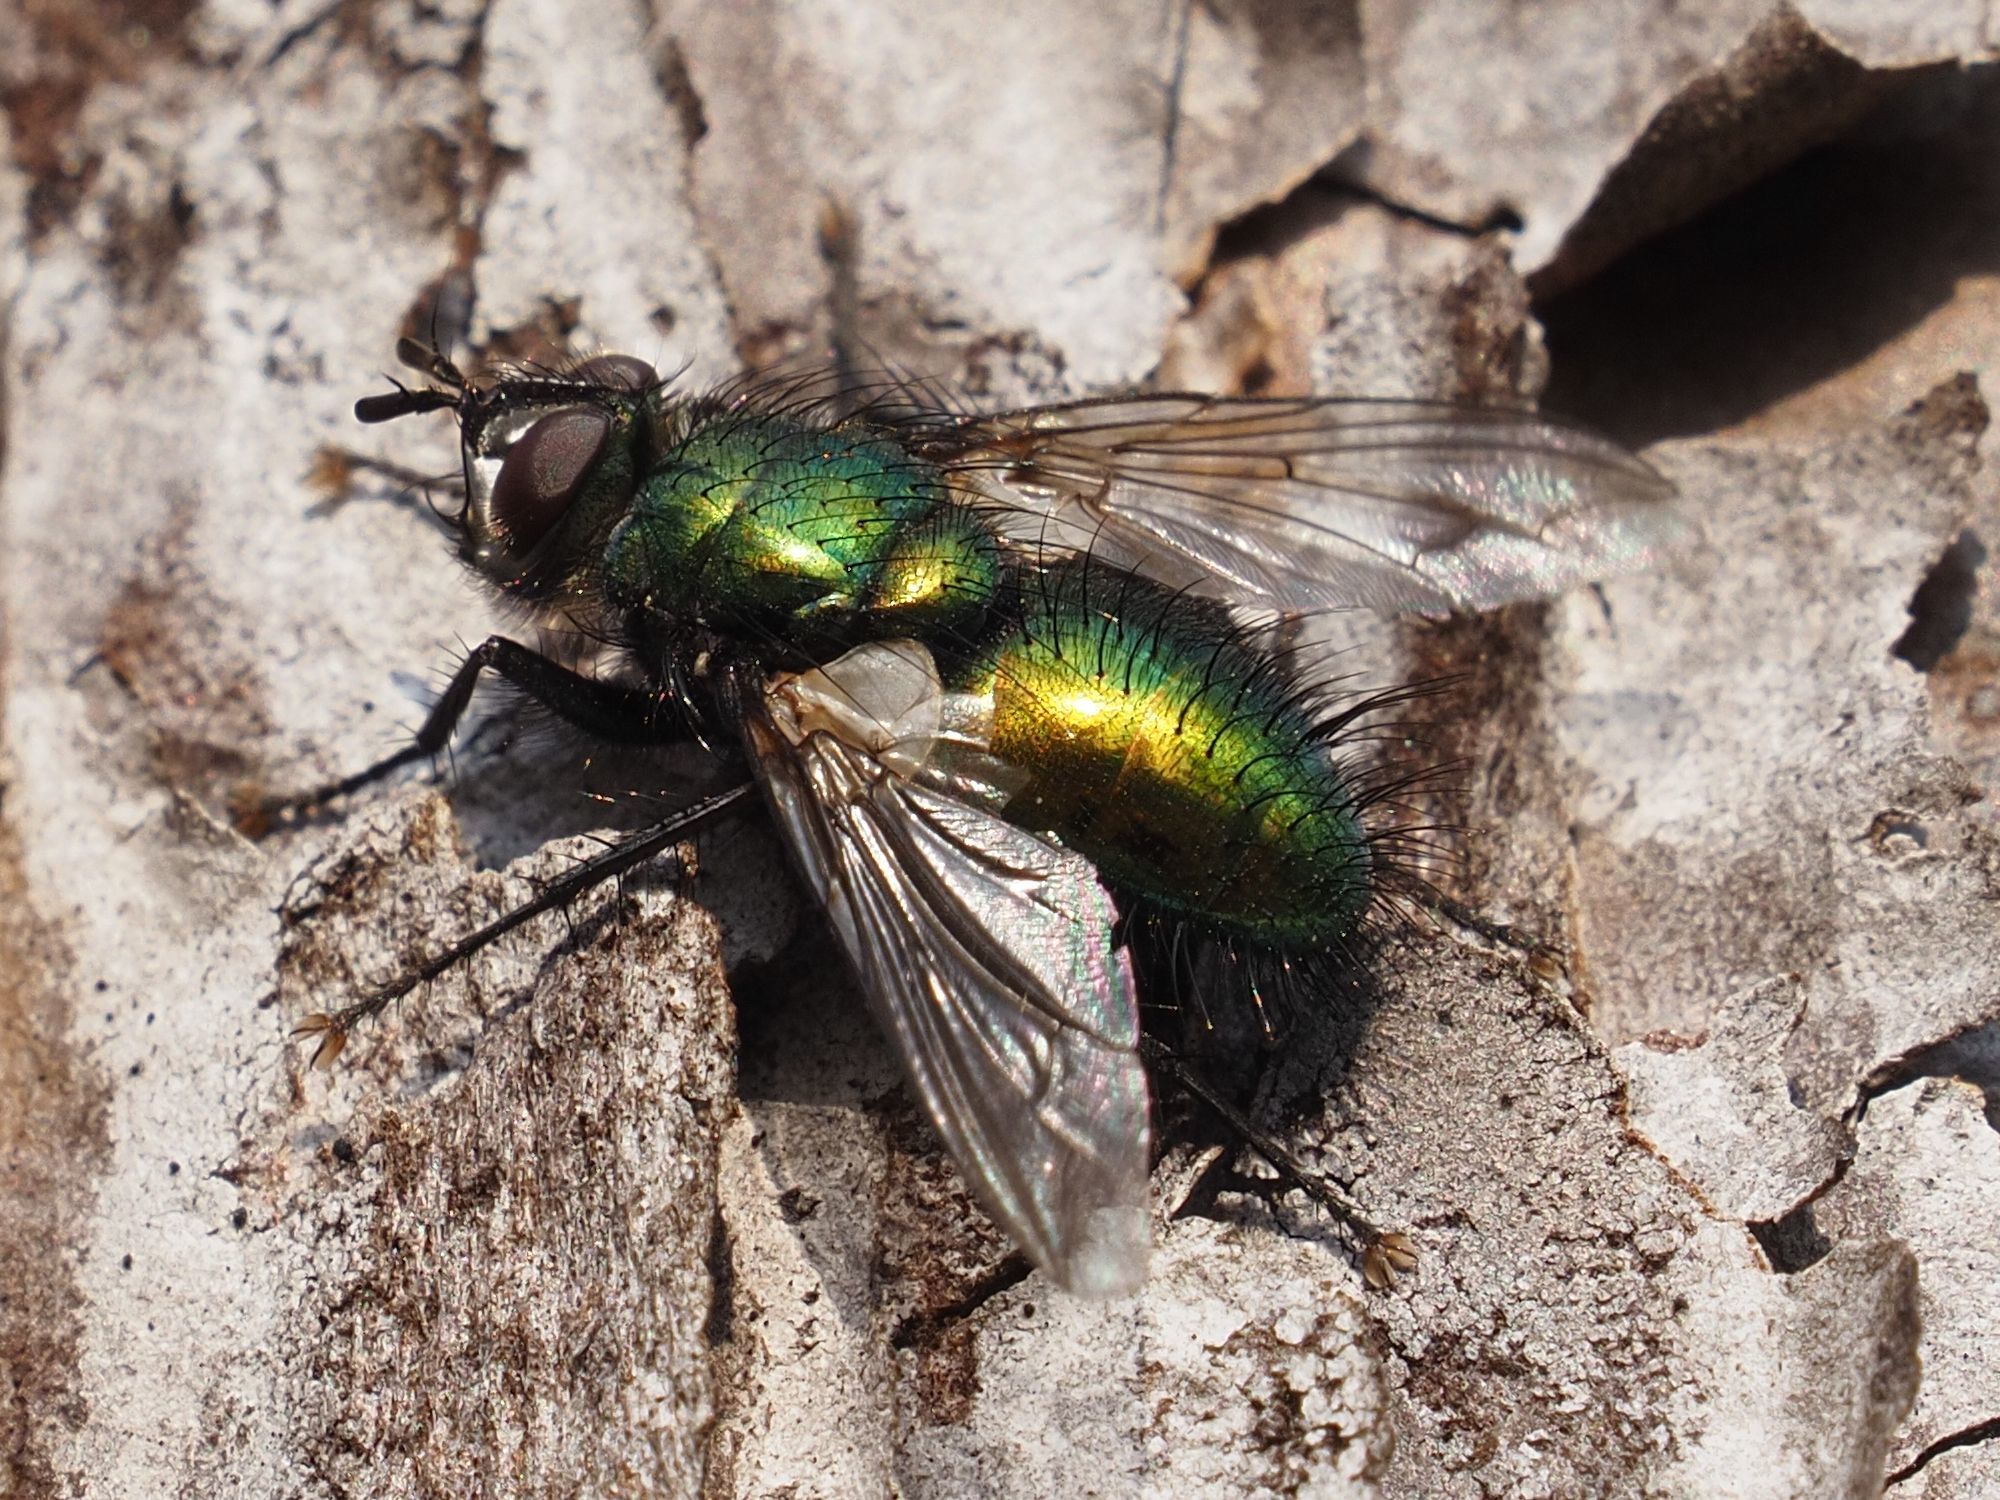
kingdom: Animalia
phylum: Arthropoda
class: Insecta
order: Diptera
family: Tachinidae
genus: Gymnocheta
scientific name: Gymnocheta viridis
